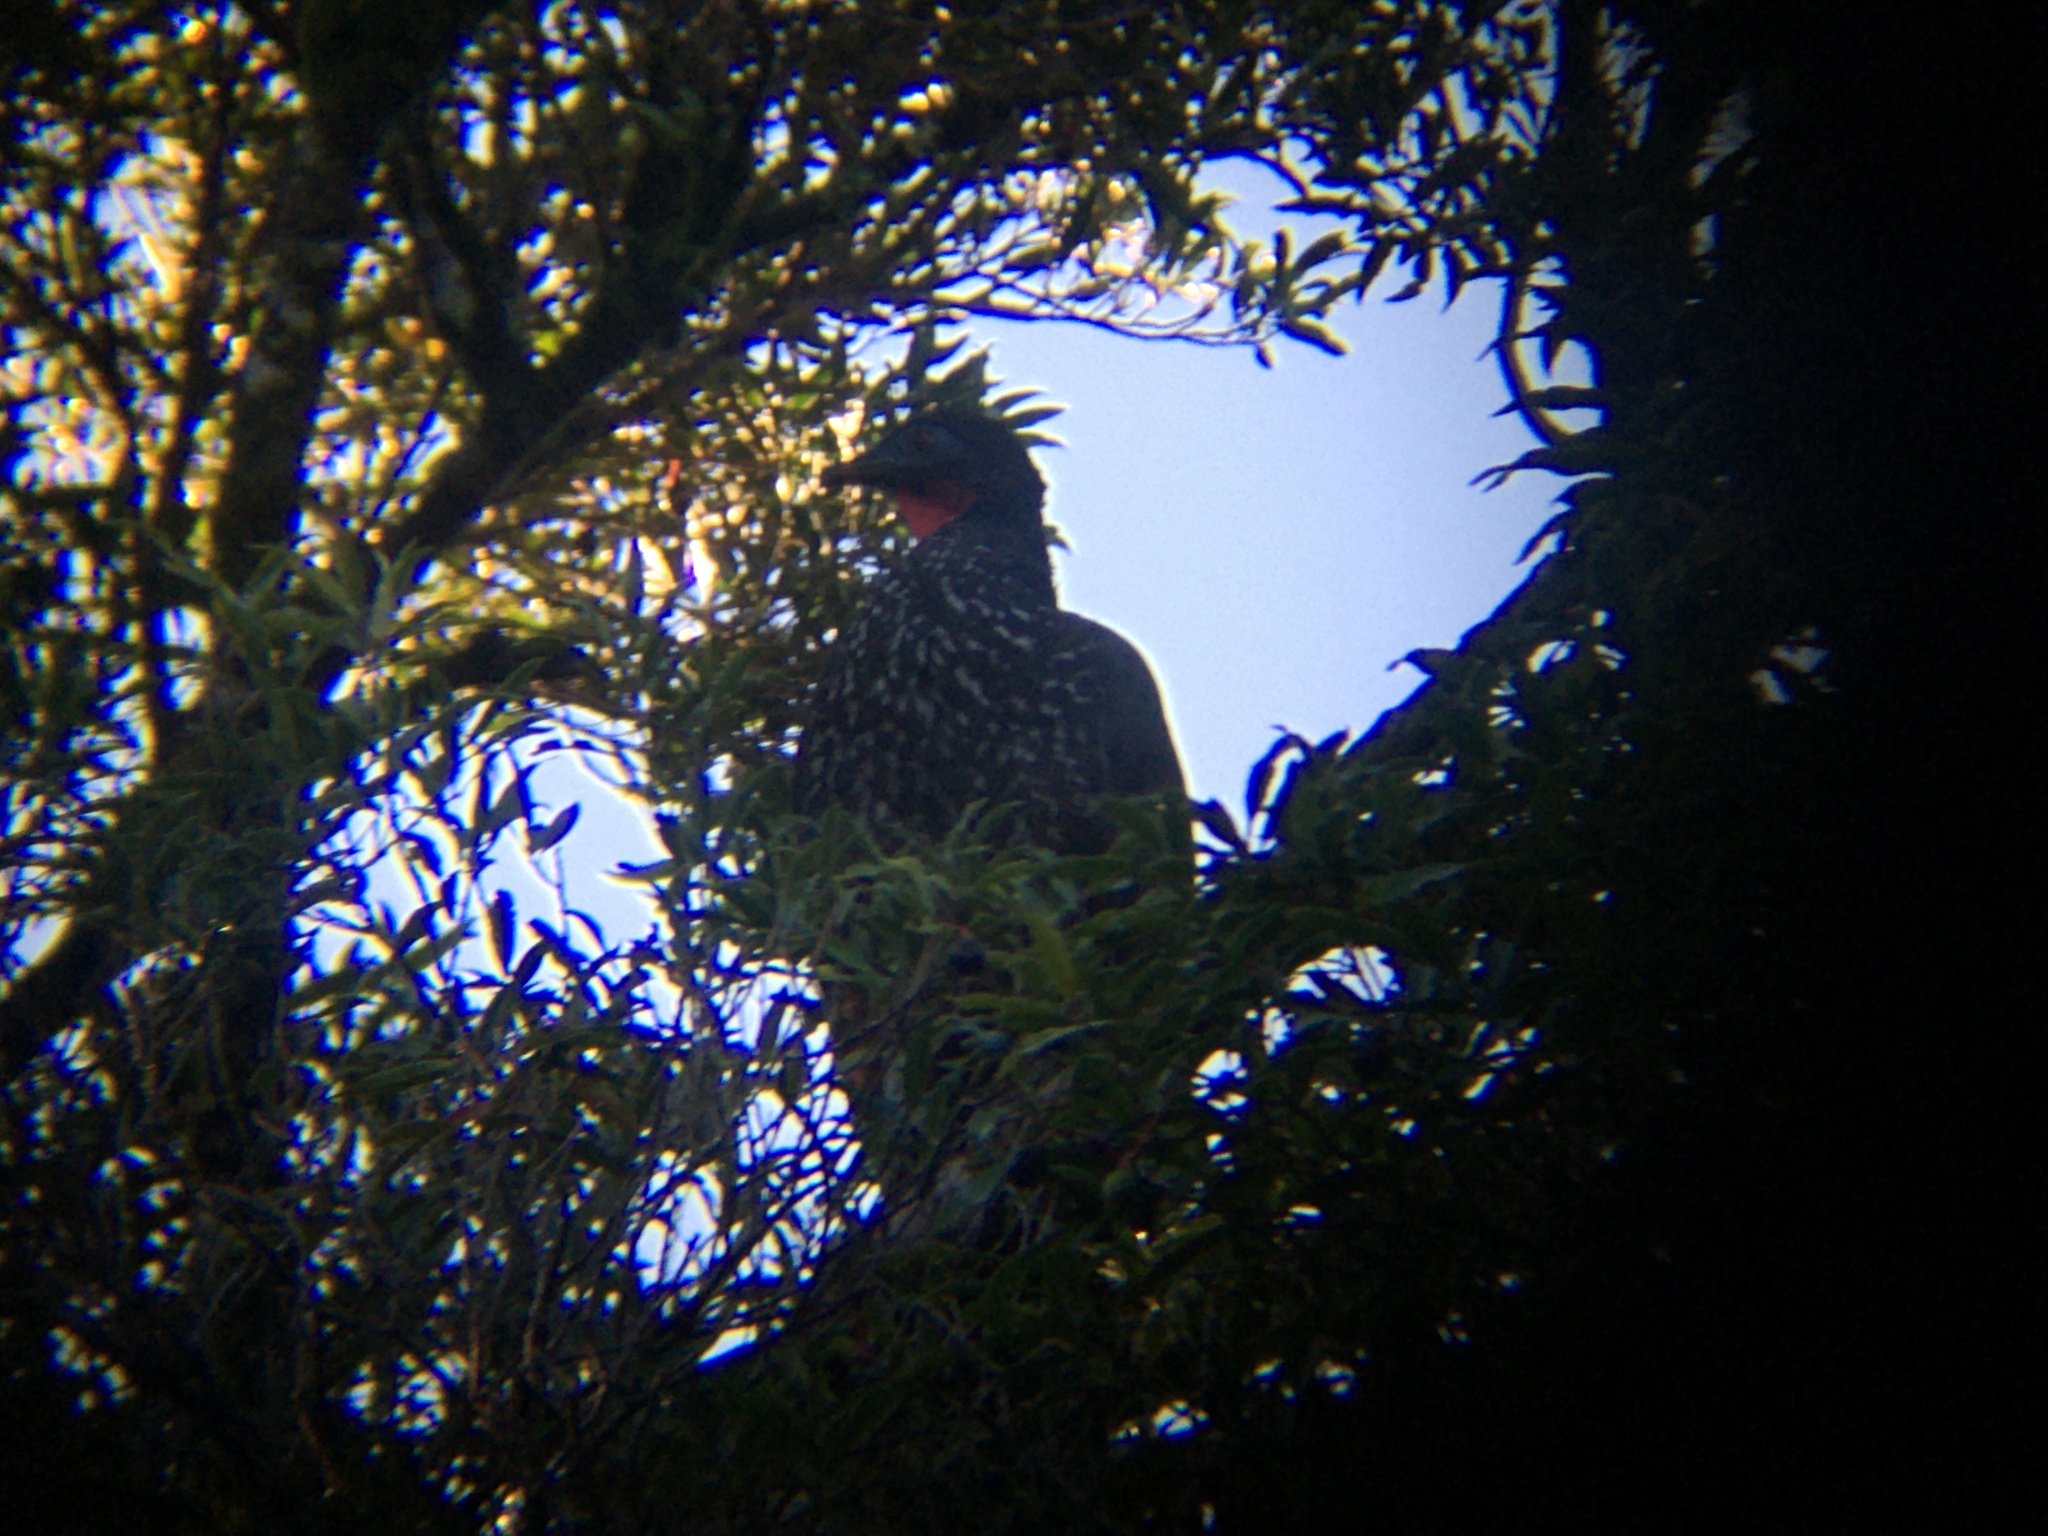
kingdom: Animalia
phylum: Chordata
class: Aves
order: Galliformes
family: Cracidae
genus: Penelope
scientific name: Penelope purpurascens
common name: Crested guan
